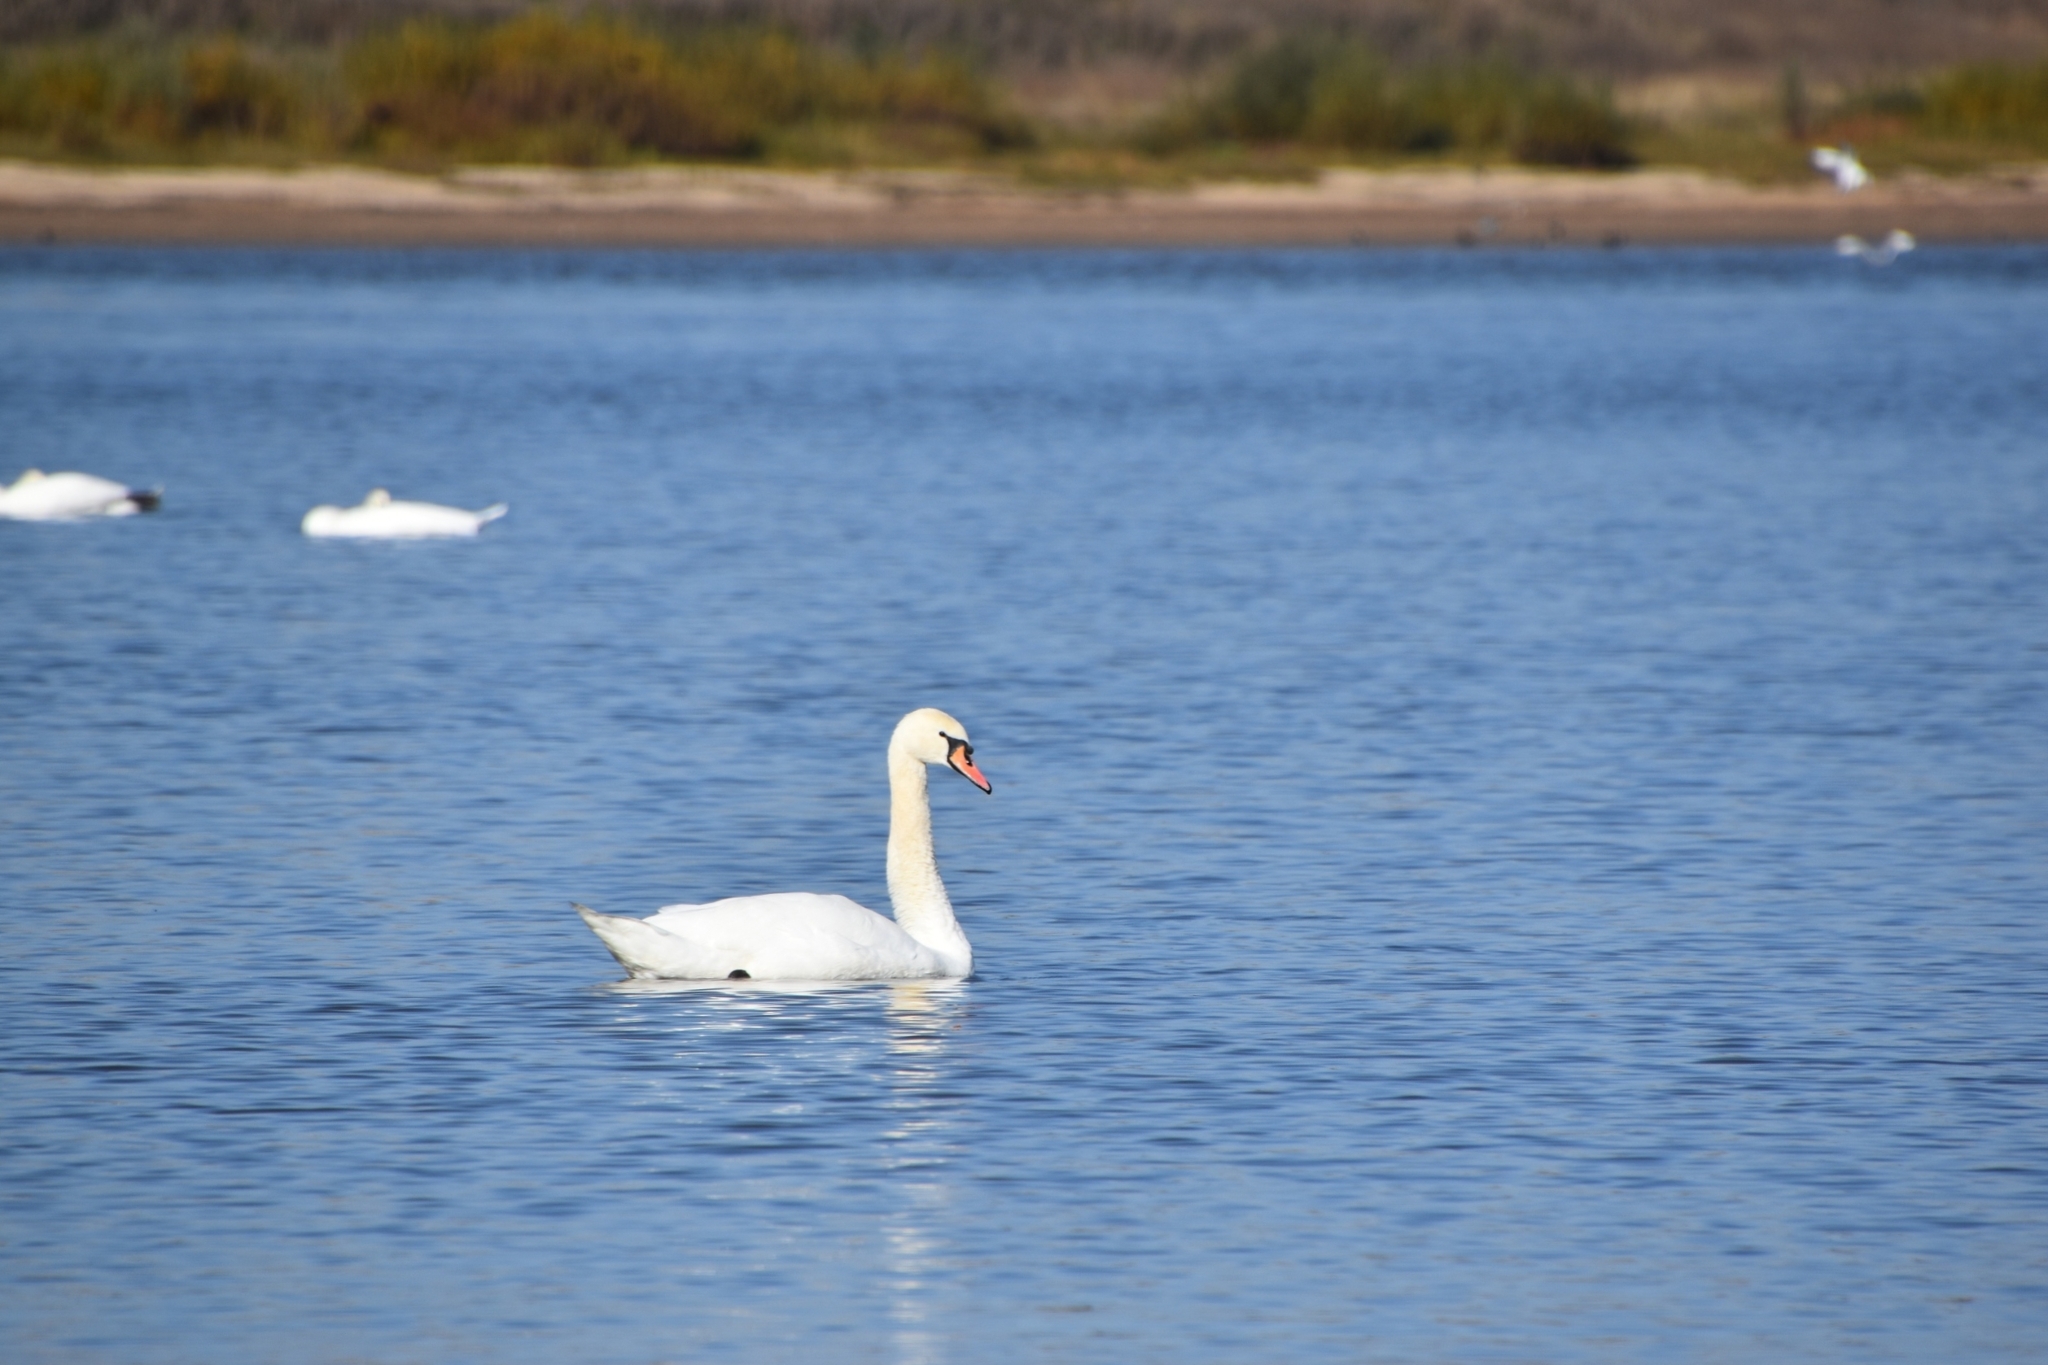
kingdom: Animalia
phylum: Chordata
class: Aves
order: Anseriformes
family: Anatidae
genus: Cygnus
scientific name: Cygnus olor
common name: Mute swan
